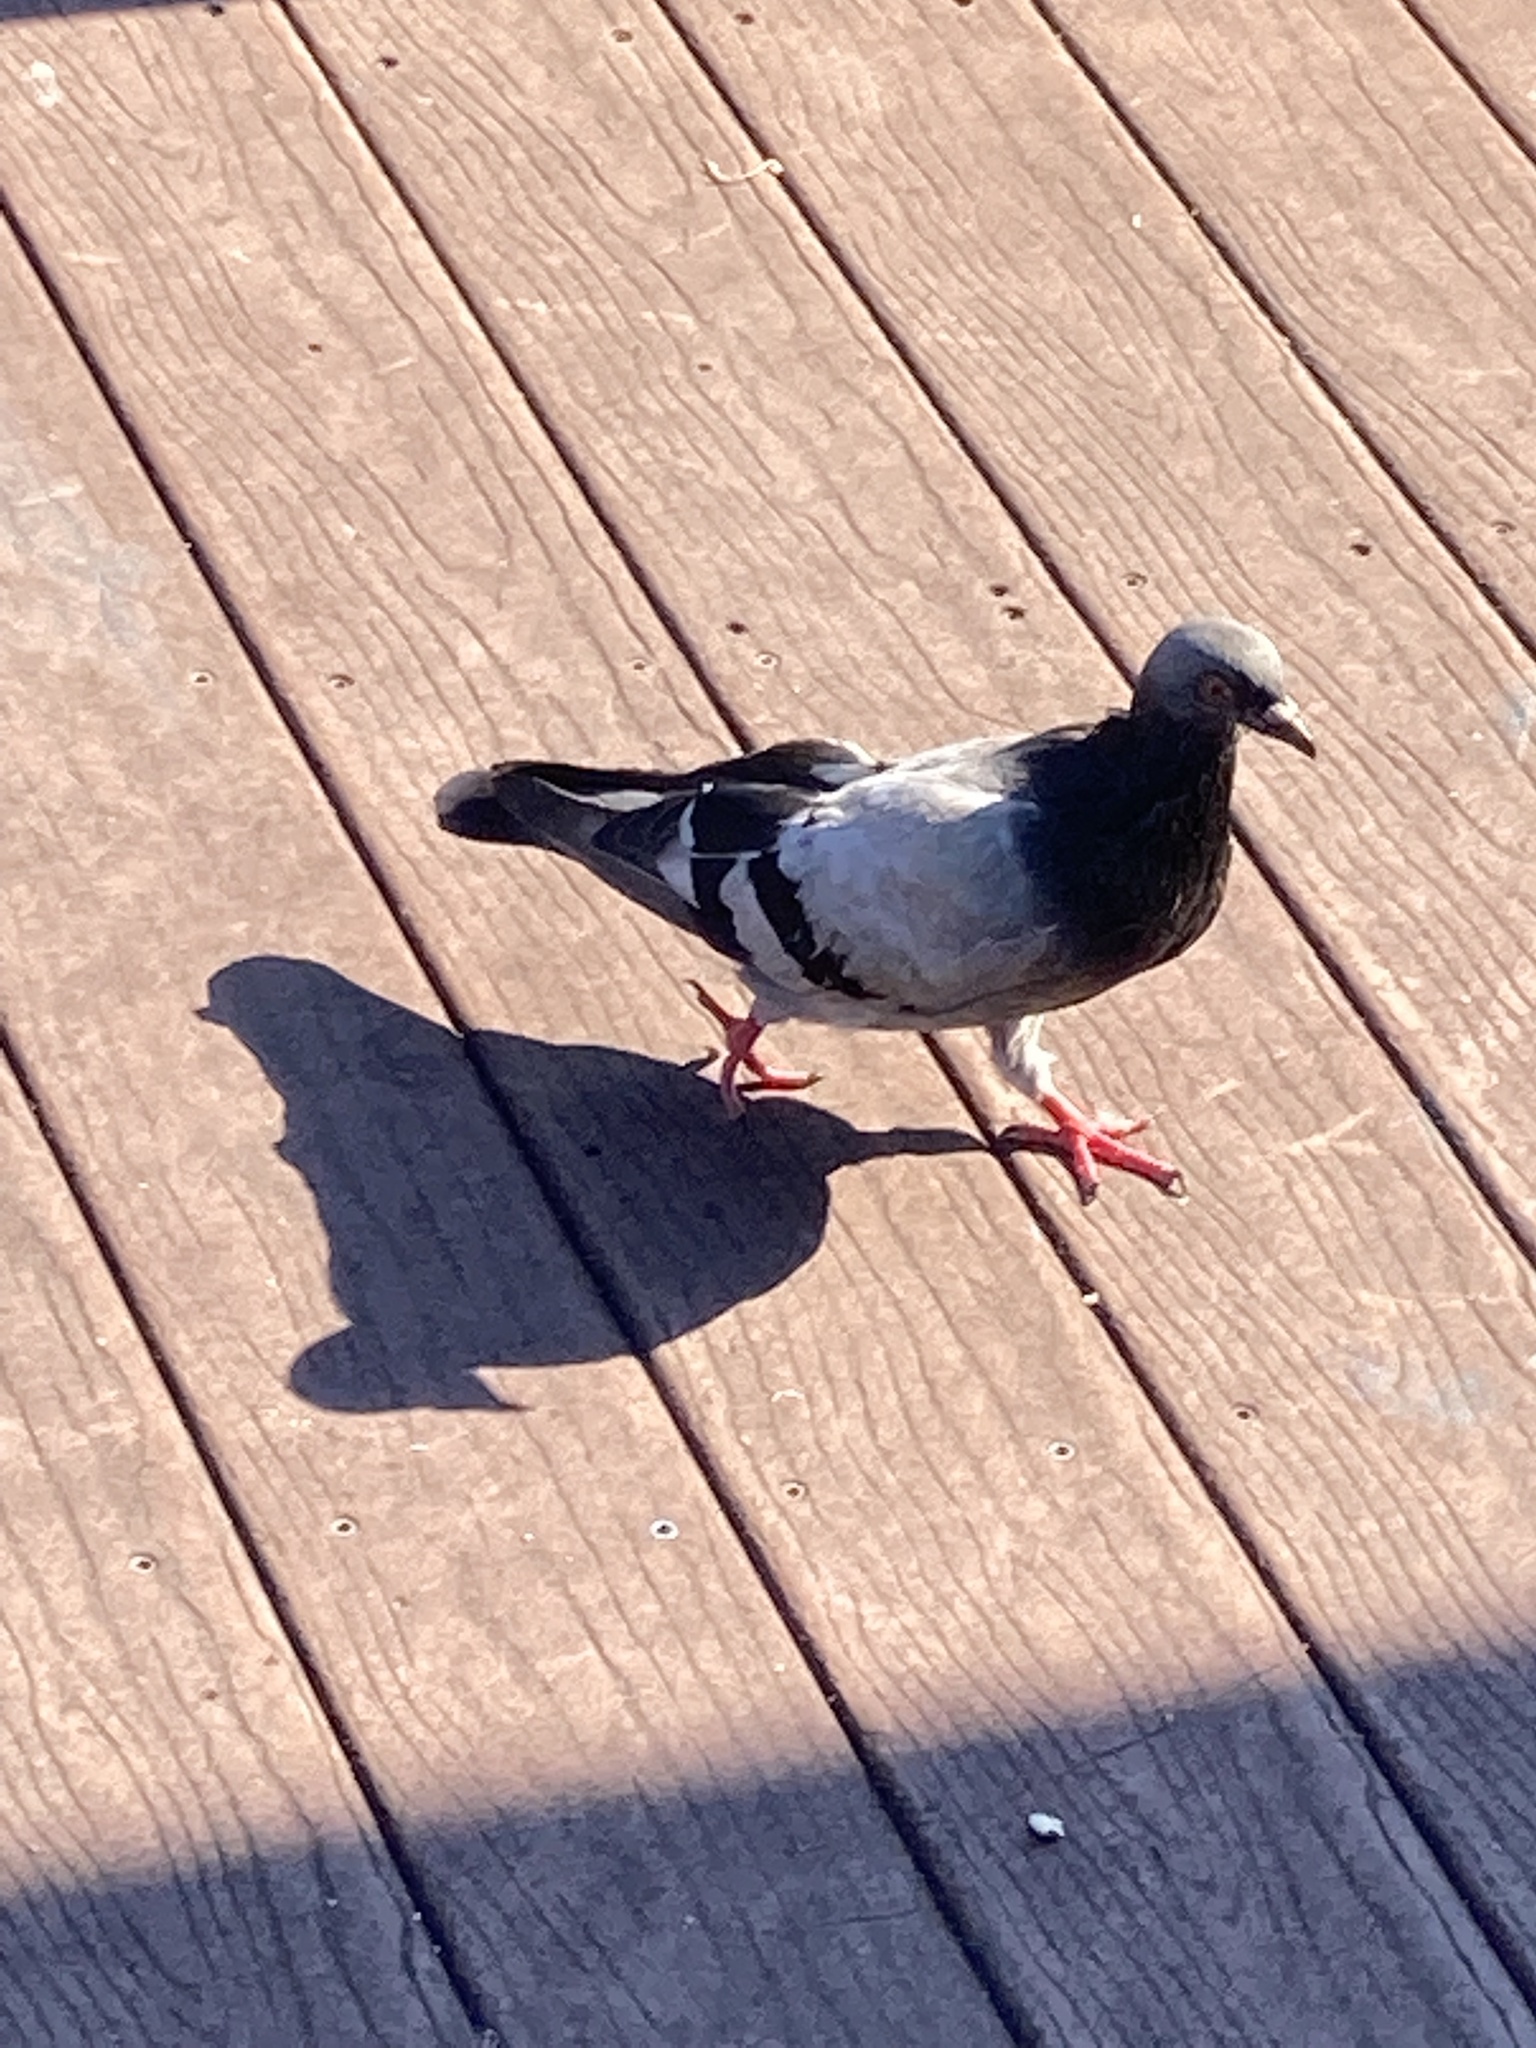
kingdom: Animalia
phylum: Chordata
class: Aves
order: Columbiformes
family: Columbidae
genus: Columba
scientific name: Columba livia
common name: Rock pigeon
